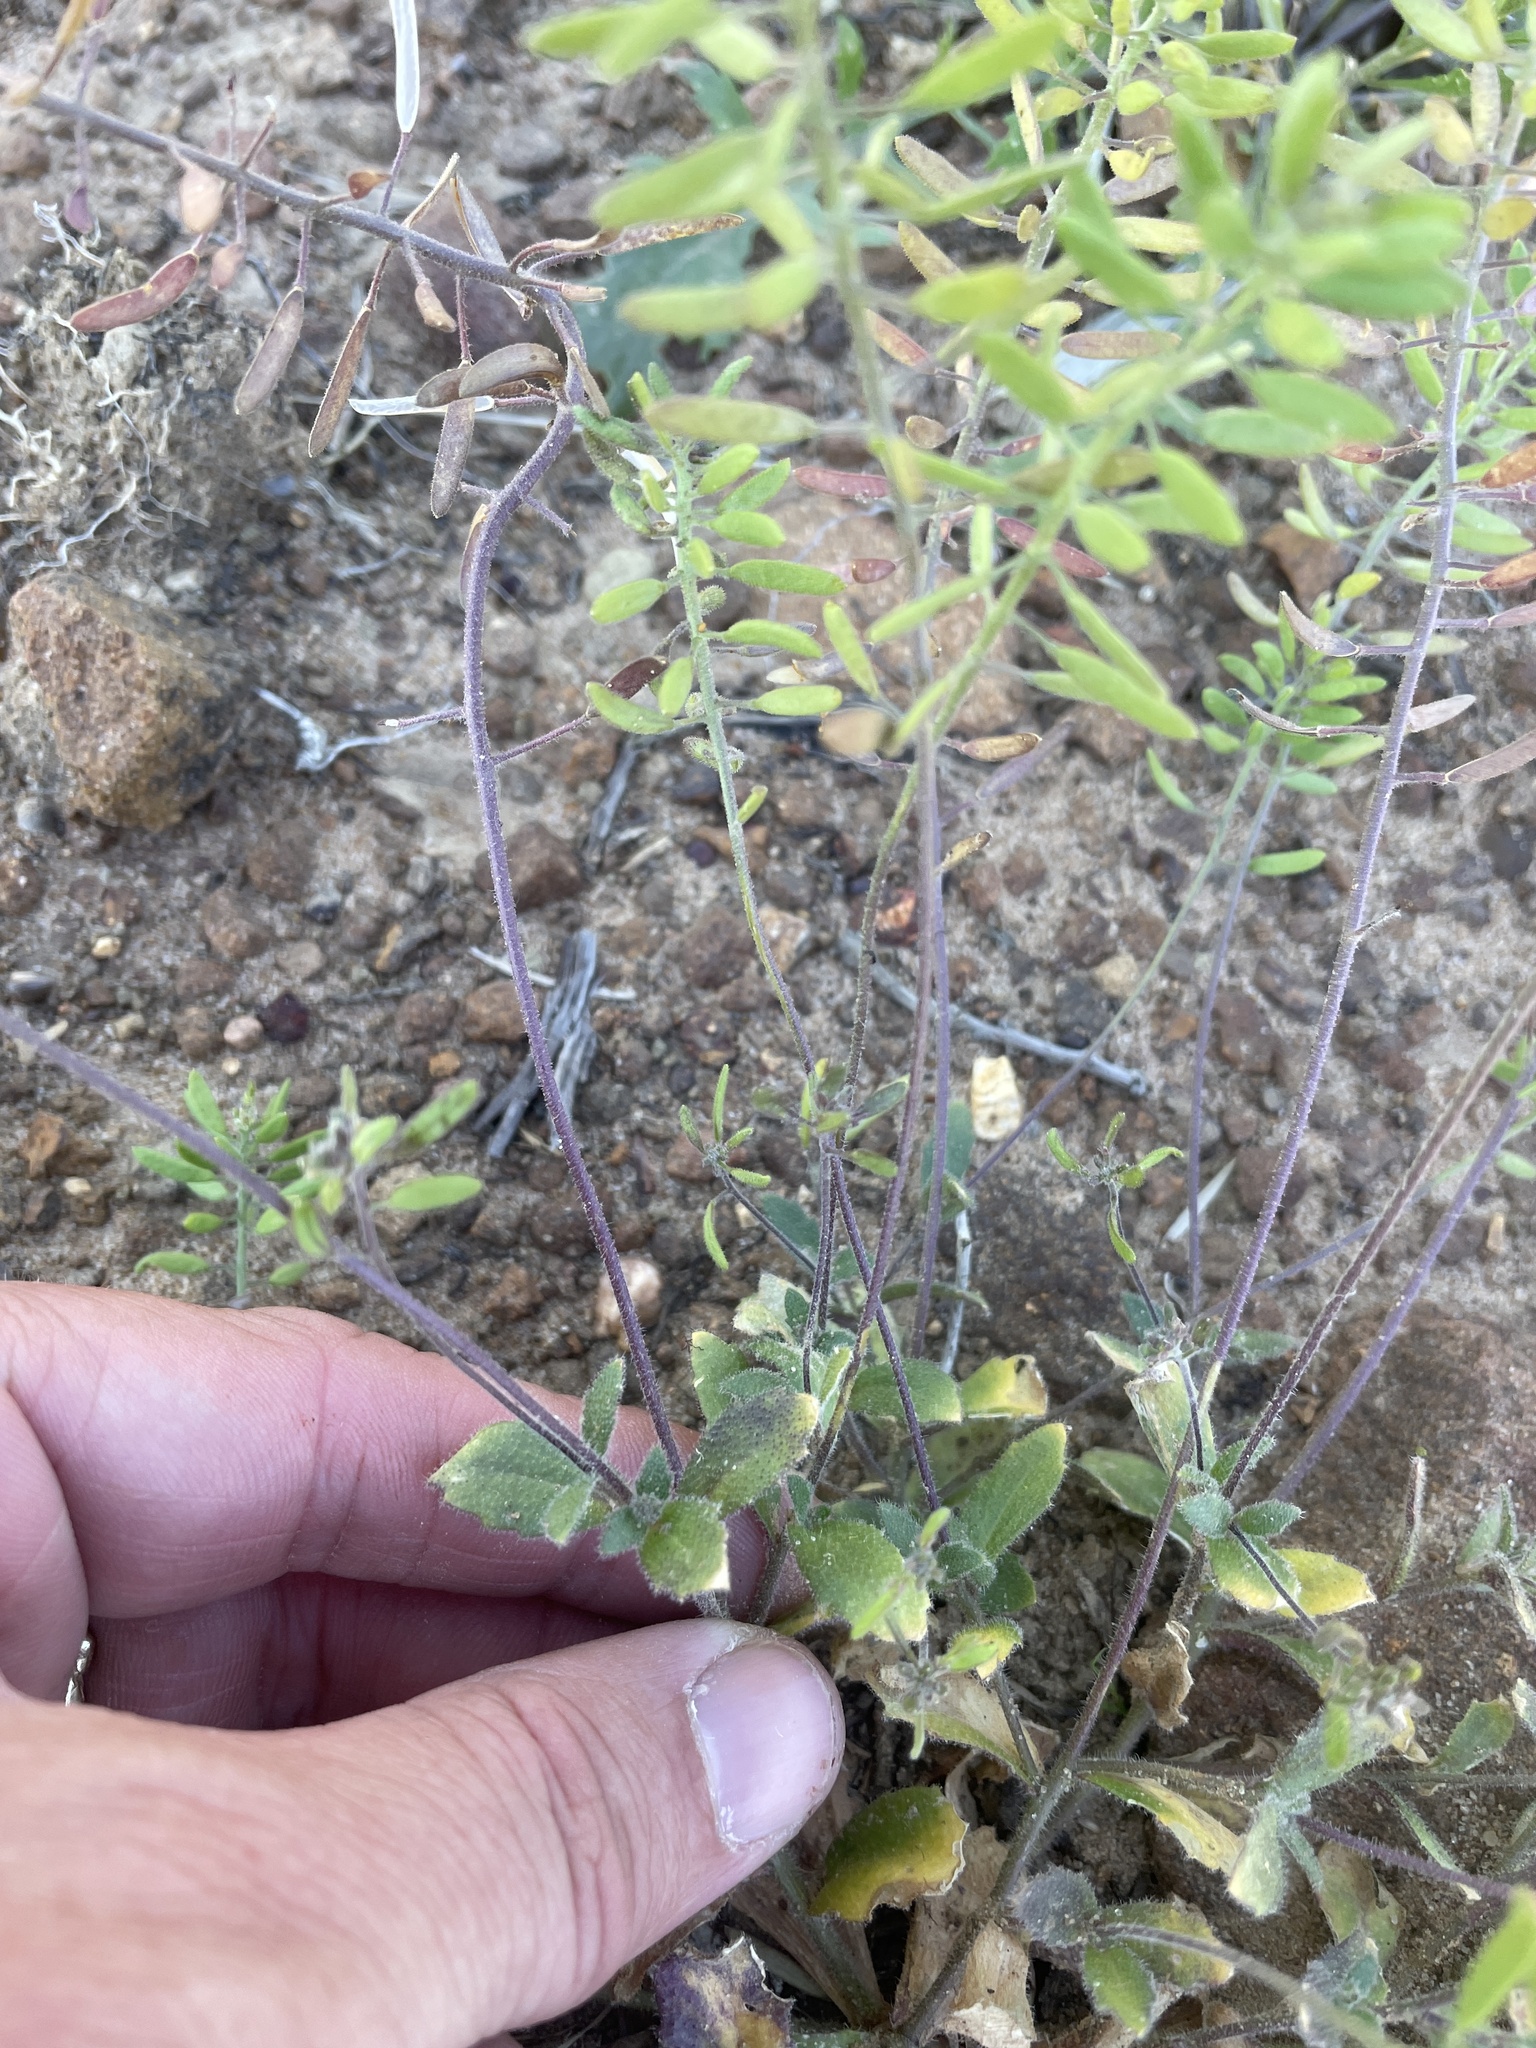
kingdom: Plantae
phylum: Tracheophyta
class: Magnoliopsida
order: Brassicales
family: Brassicaceae
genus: Tomostima
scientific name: Tomostima cuneifolia
